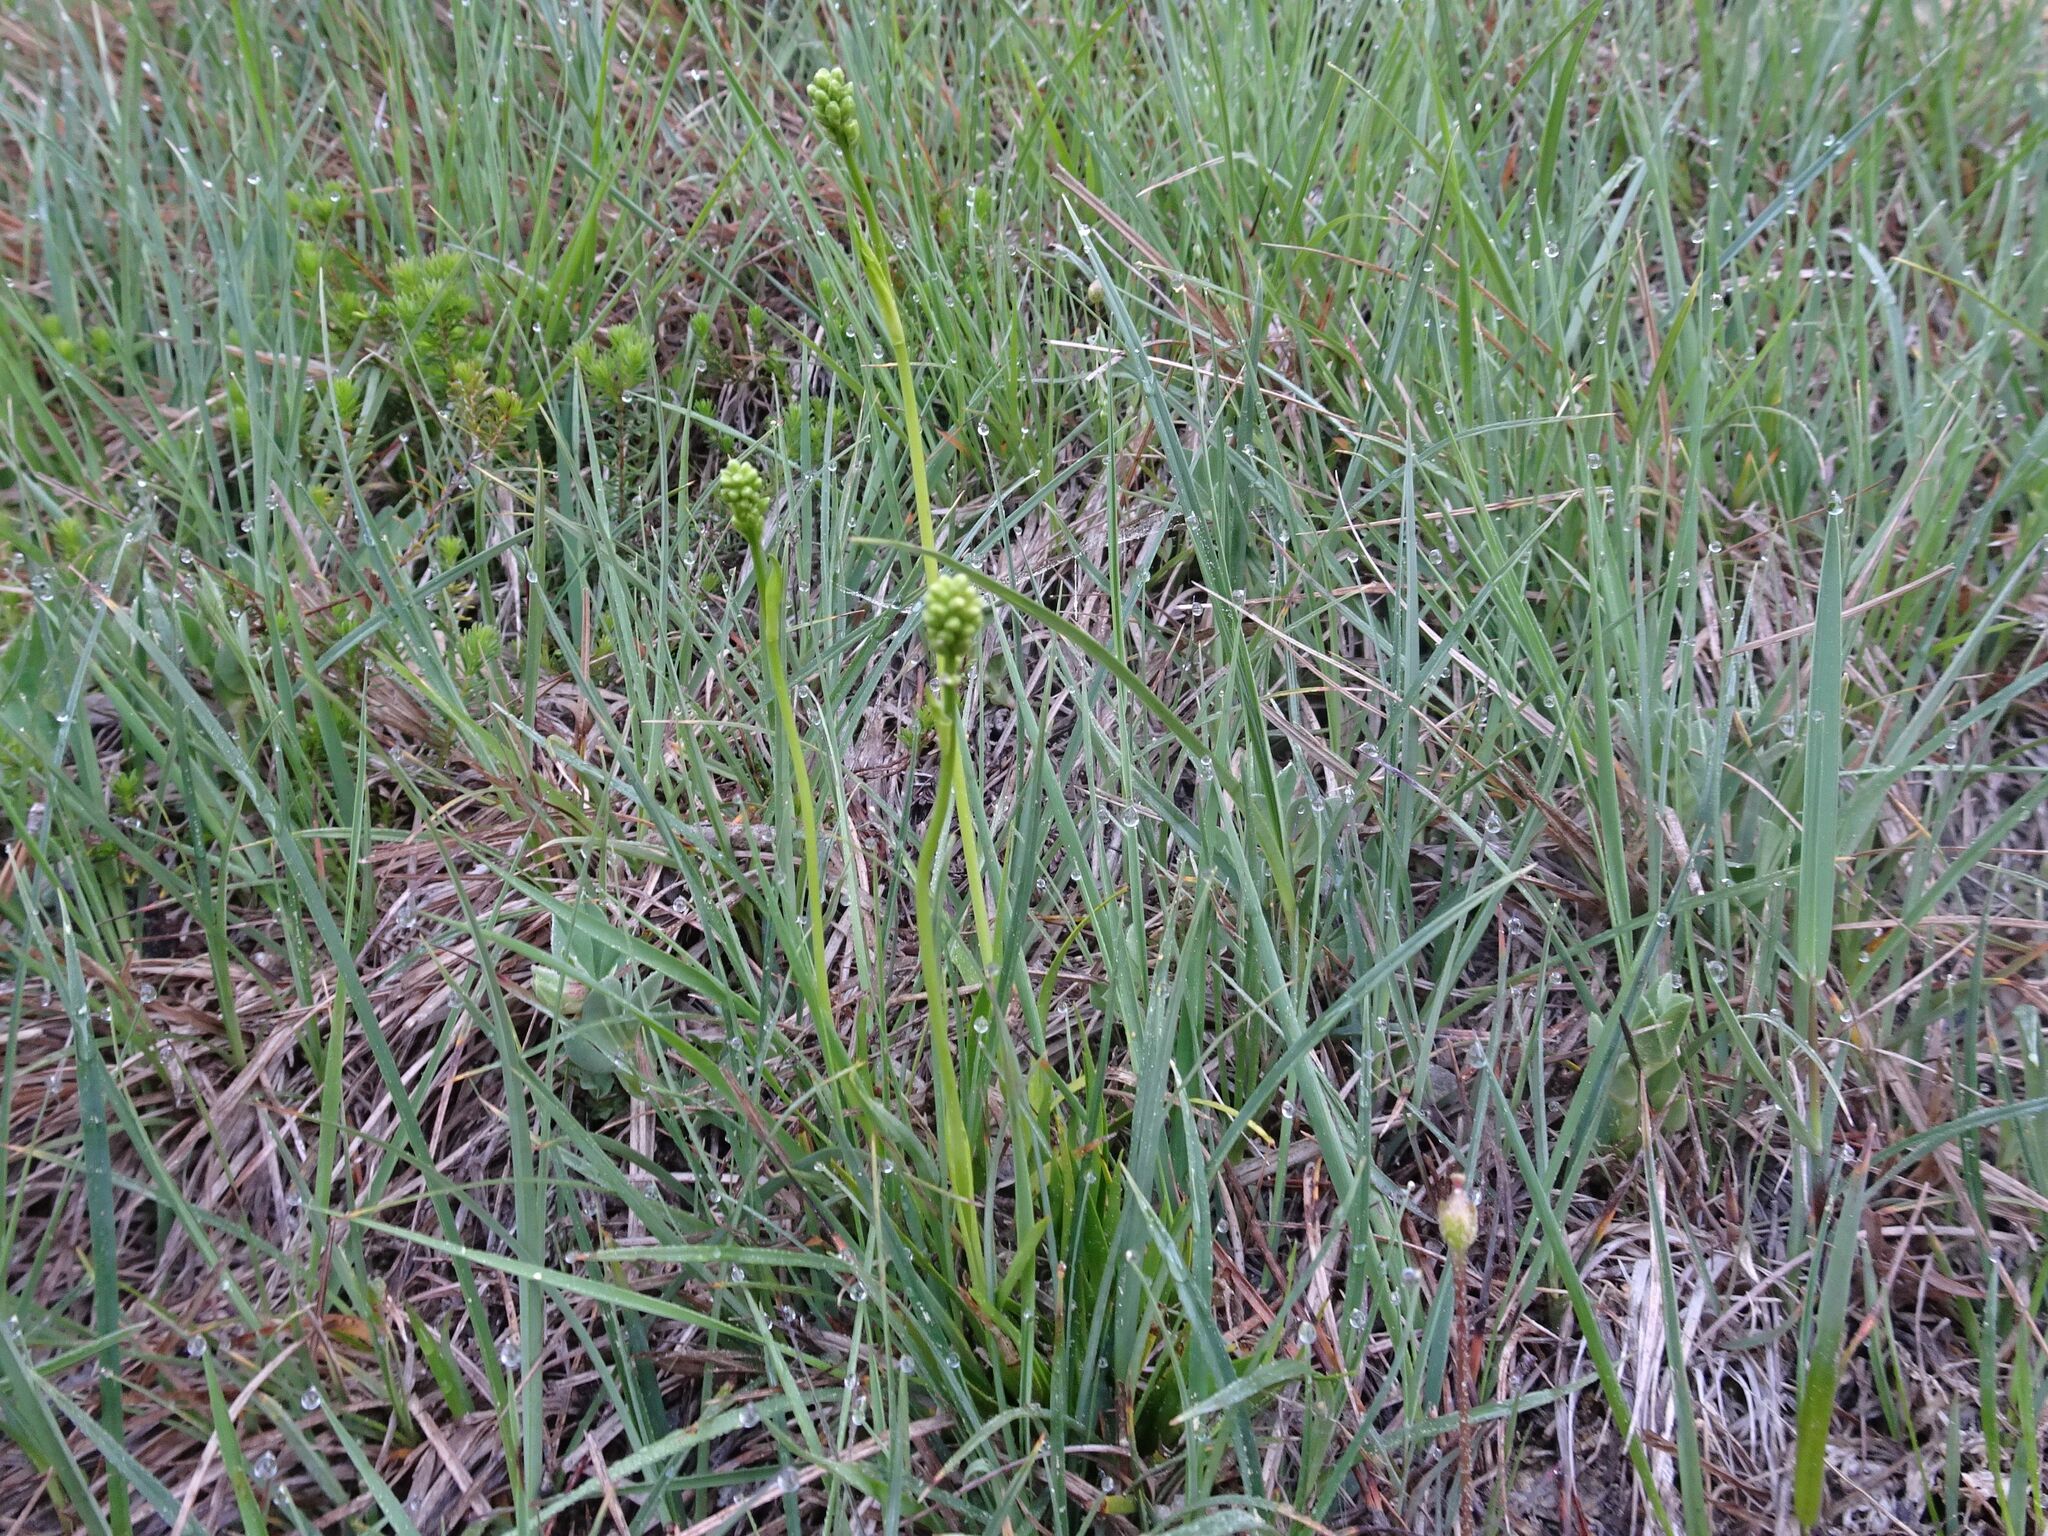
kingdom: Plantae
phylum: Tracheophyta
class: Liliopsida
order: Alismatales
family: Tofieldiaceae
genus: Tofieldia
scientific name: Tofieldia calyculata
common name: German-asphodel
